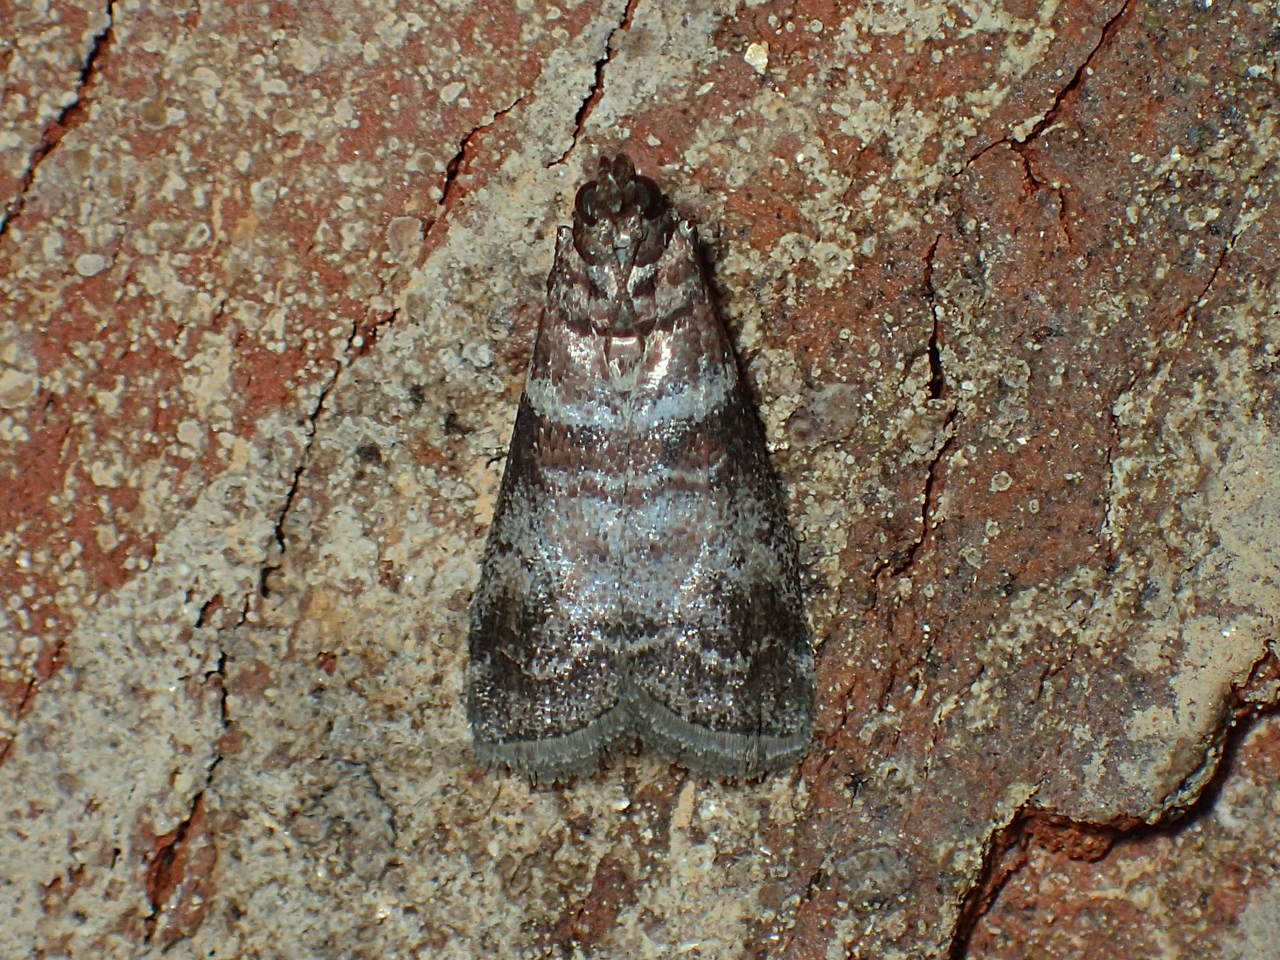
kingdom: Animalia
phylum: Arthropoda
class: Insecta
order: Lepidoptera
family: Pyralidae
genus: Sciota
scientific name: Sciota uvinella
